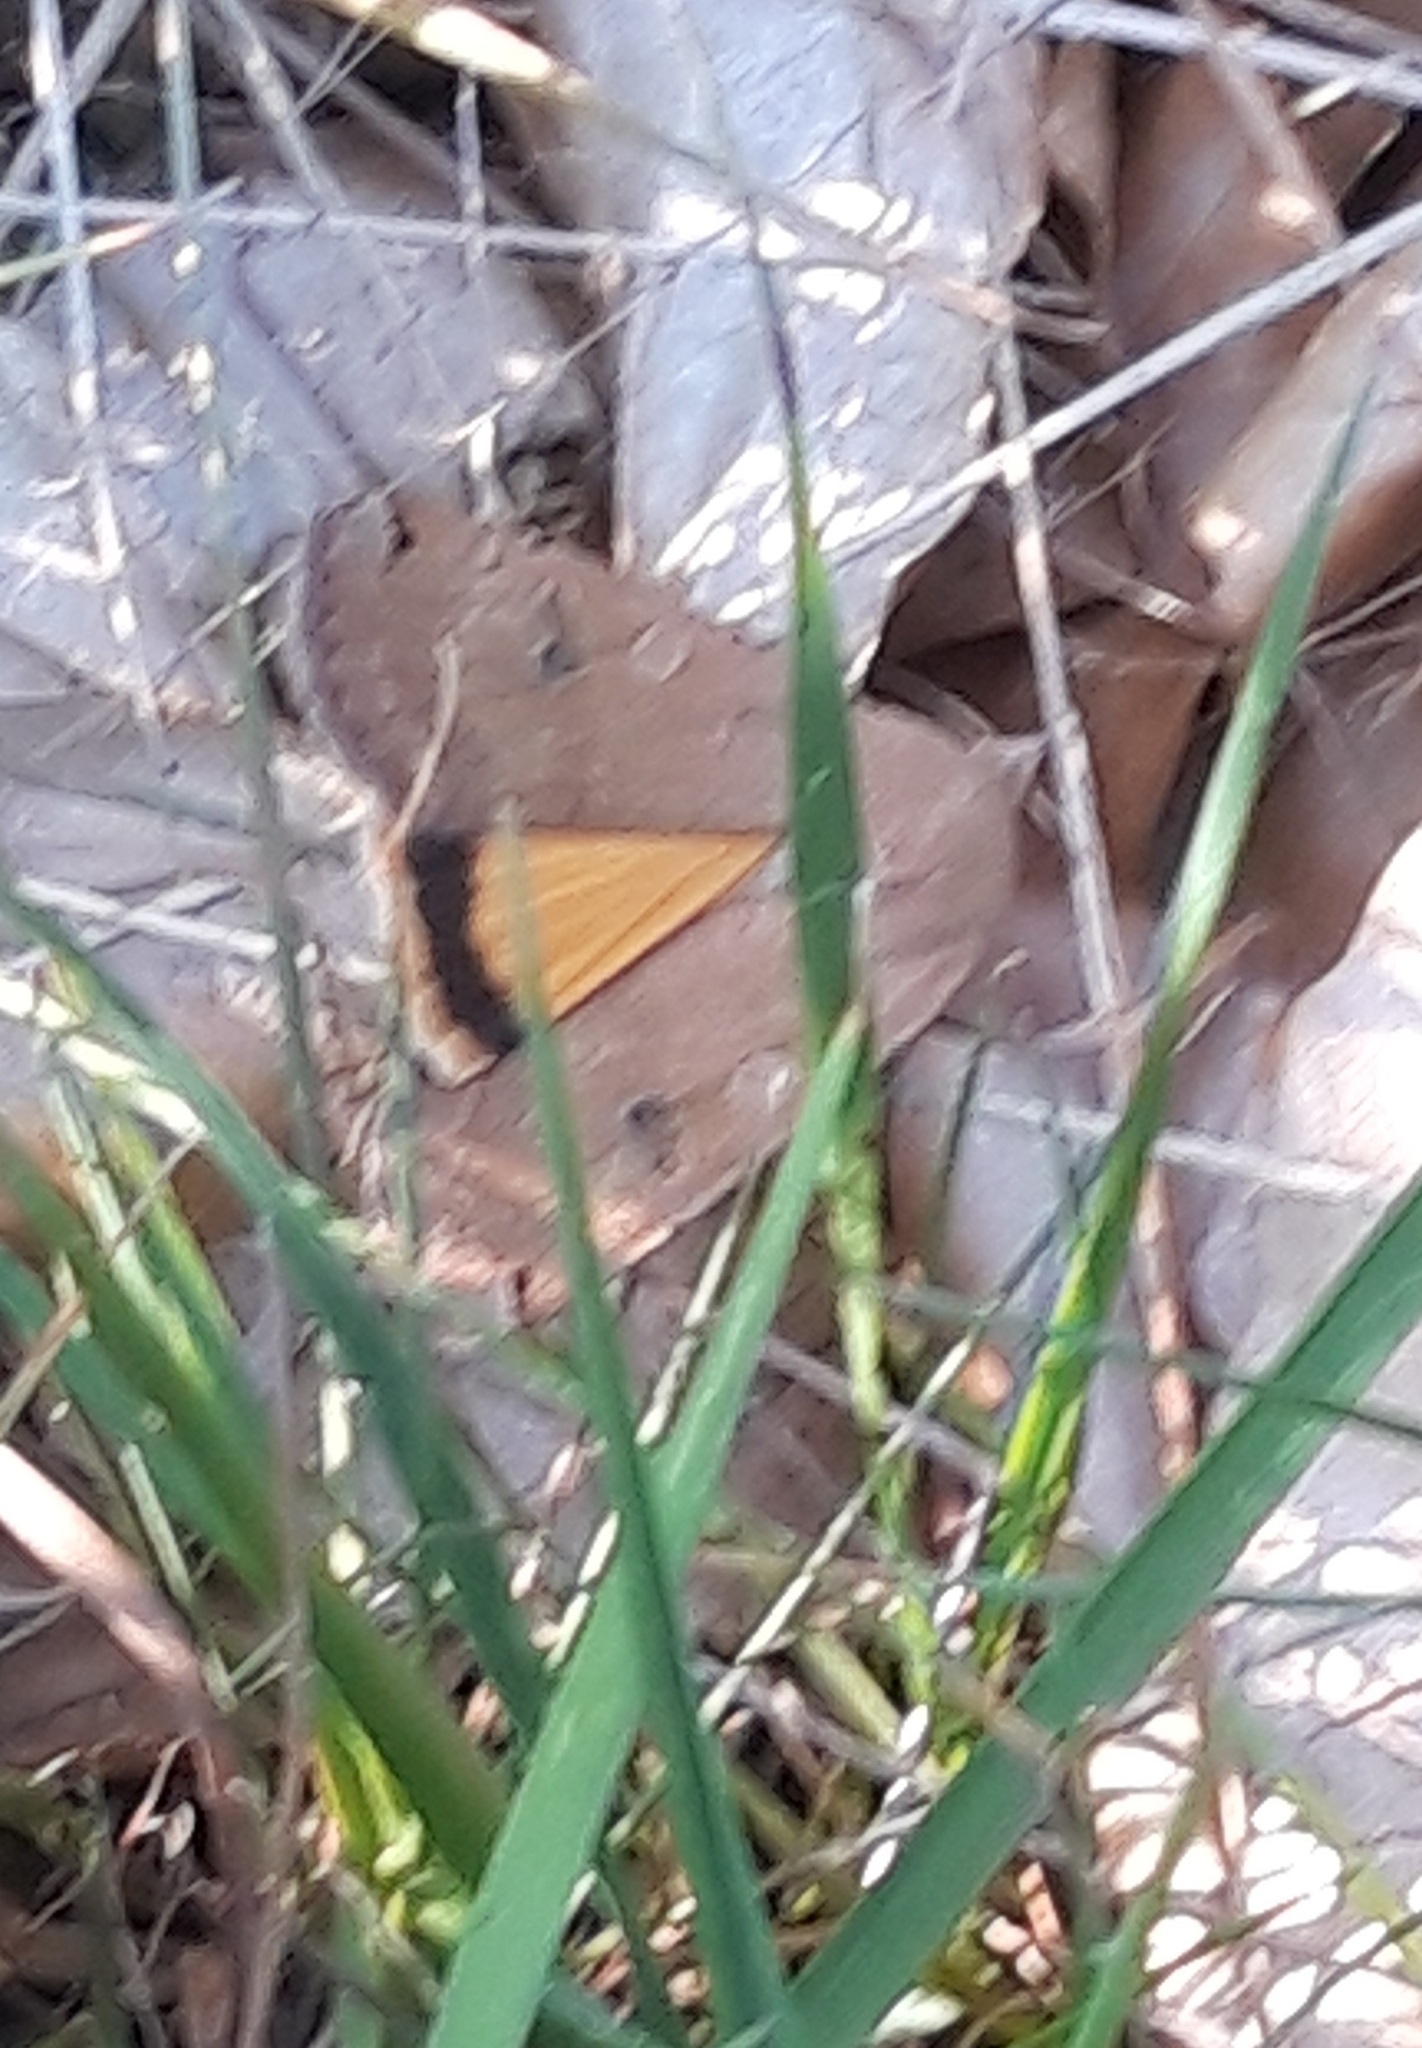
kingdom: Animalia
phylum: Arthropoda
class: Insecta
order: Lepidoptera
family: Noctuidae
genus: Noctua
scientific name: Noctua pronuba
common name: Large yellow underwing
